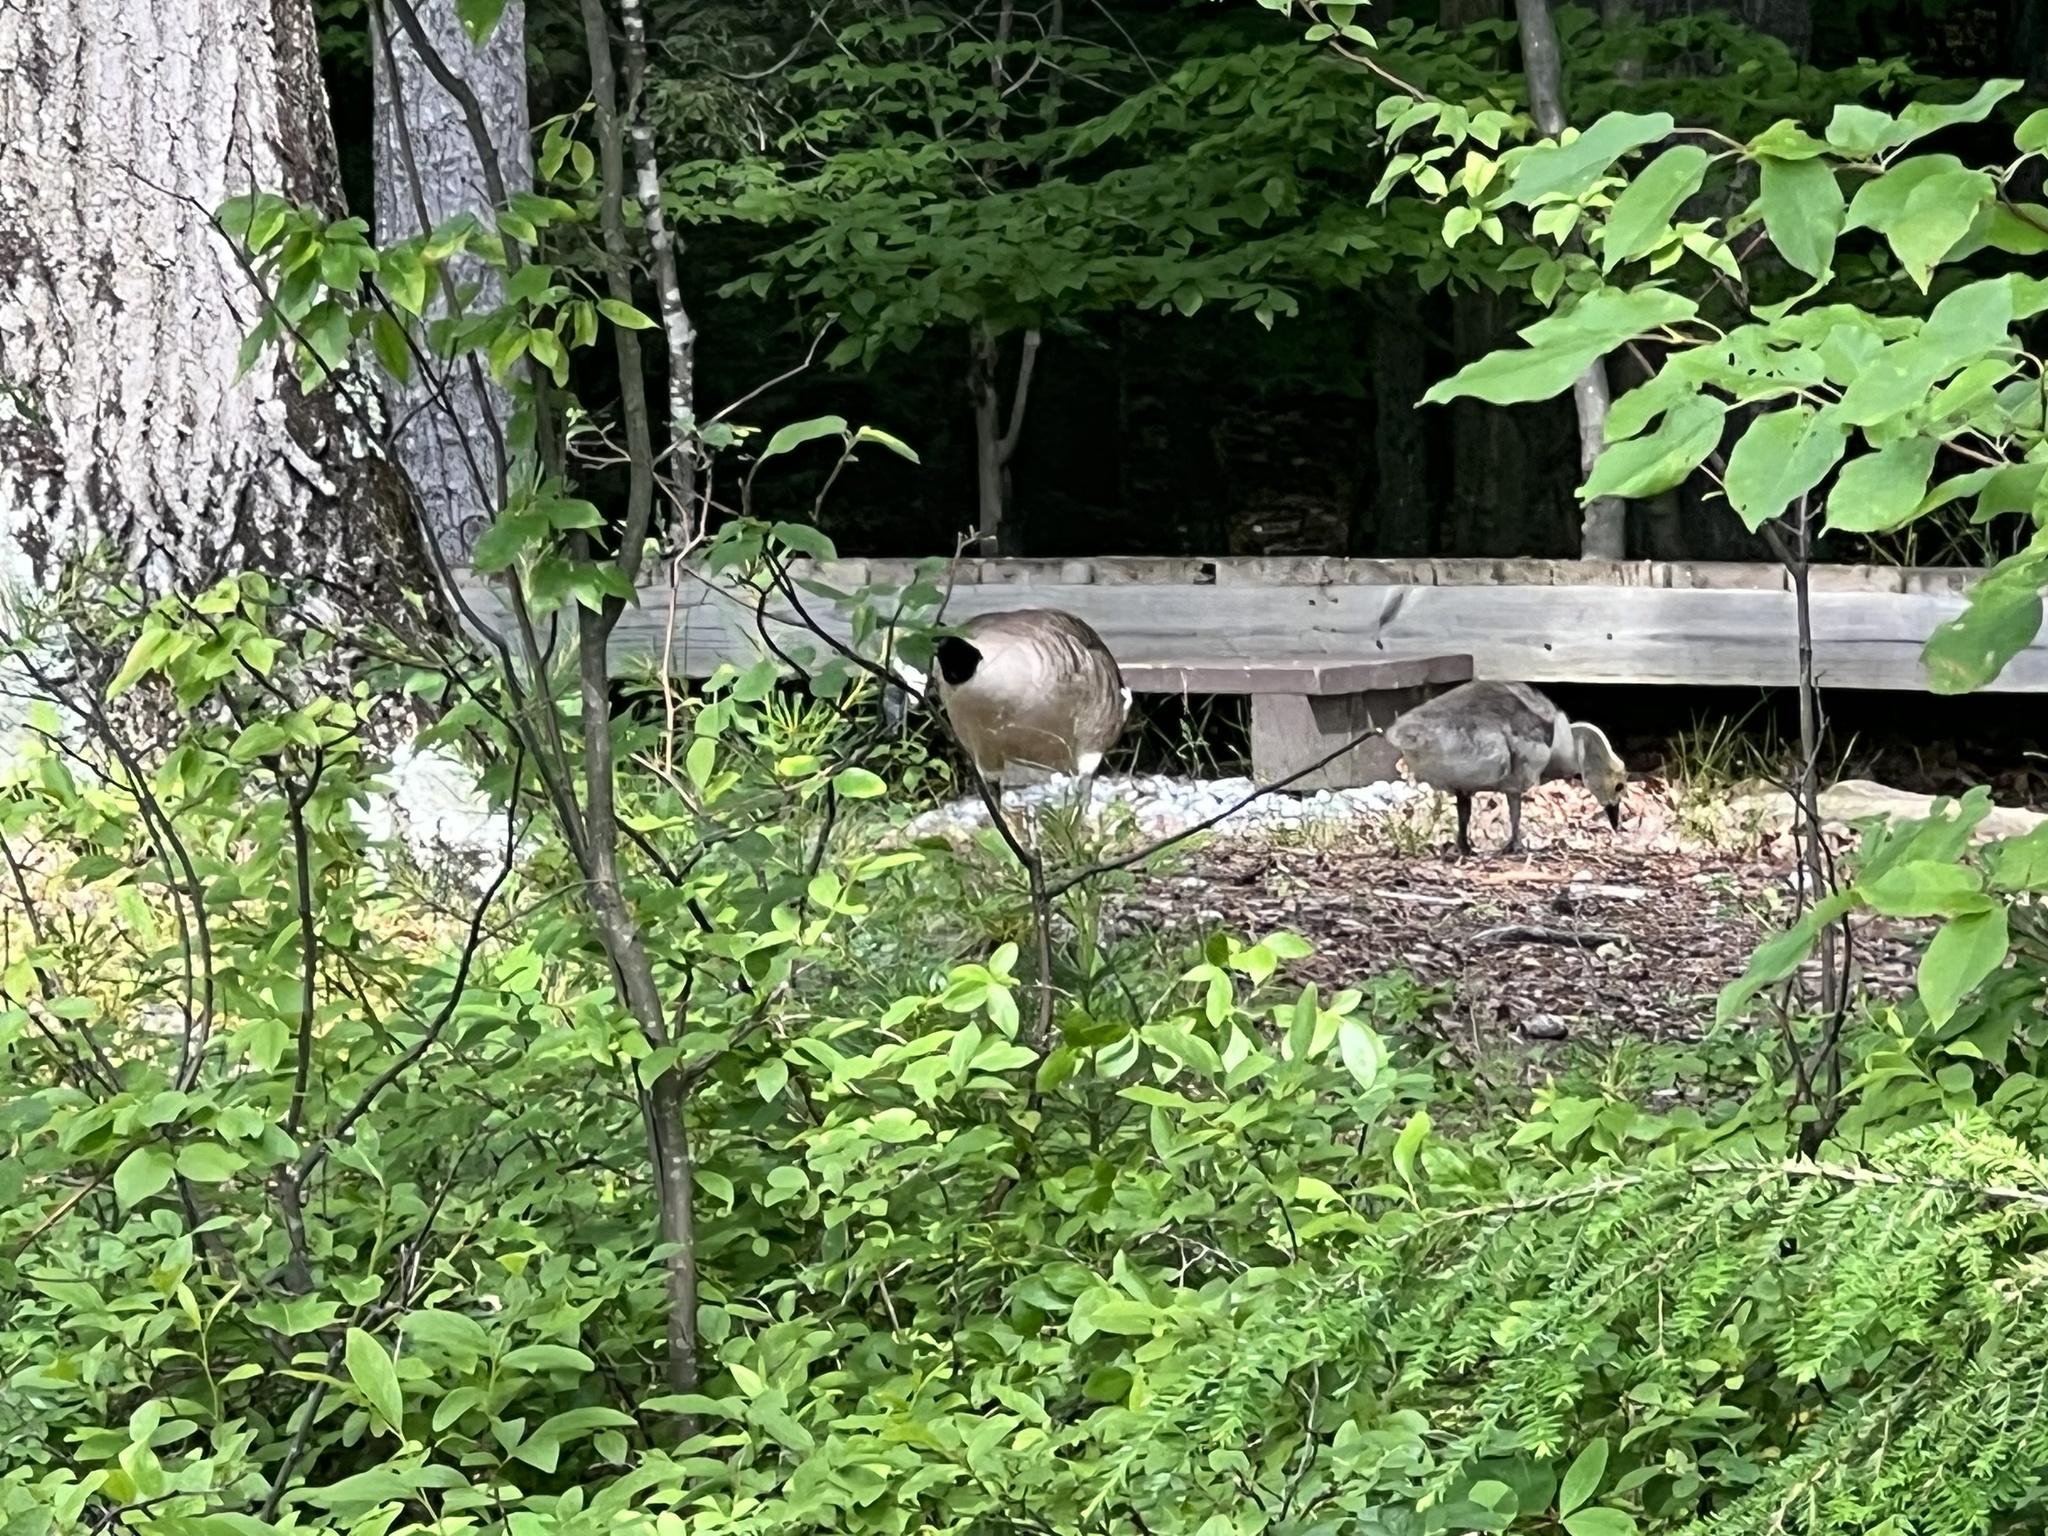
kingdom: Animalia
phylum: Chordata
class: Aves
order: Anseriformes
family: Anatidae
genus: Branta
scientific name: Branta canadensis
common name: Canada goose
